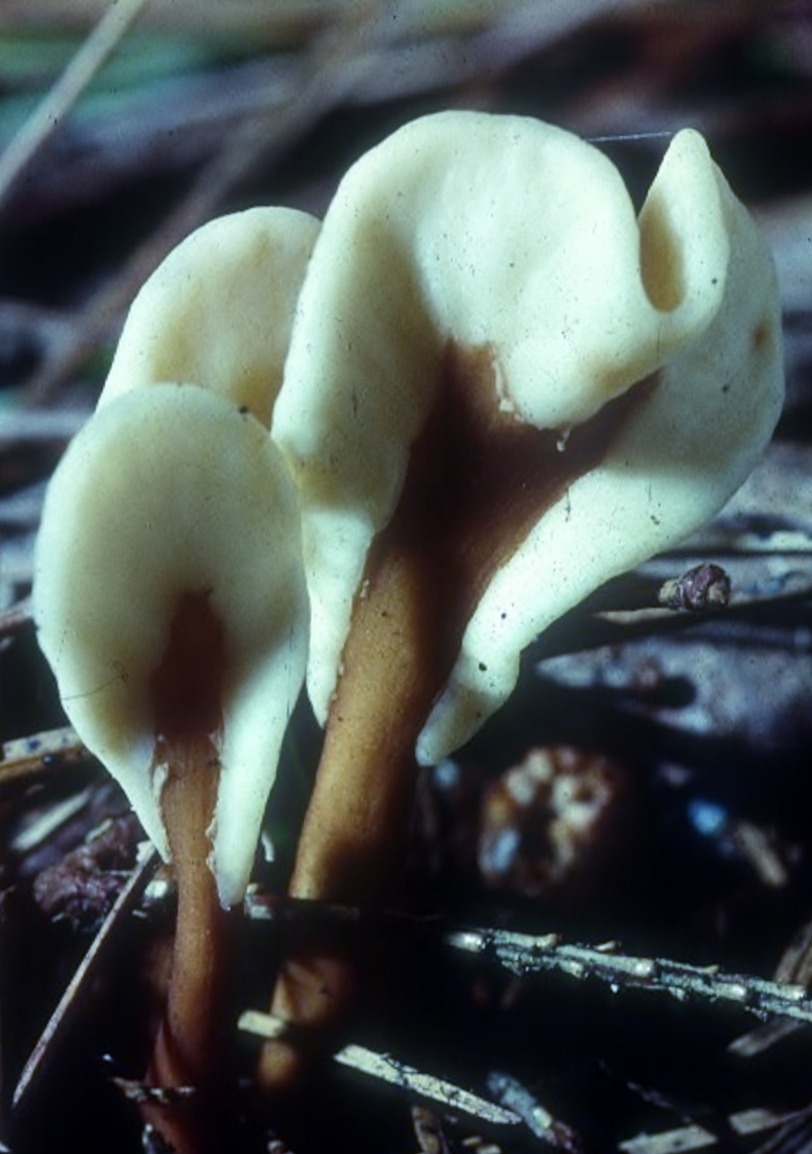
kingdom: Fungi
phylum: Ascomycota
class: Leotiomycetes
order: Rhytismatales
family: Cudoniaceae
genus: Spathulariopsis
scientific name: Spathulariopsis velutipes
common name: Velvet-foot fairy fan
